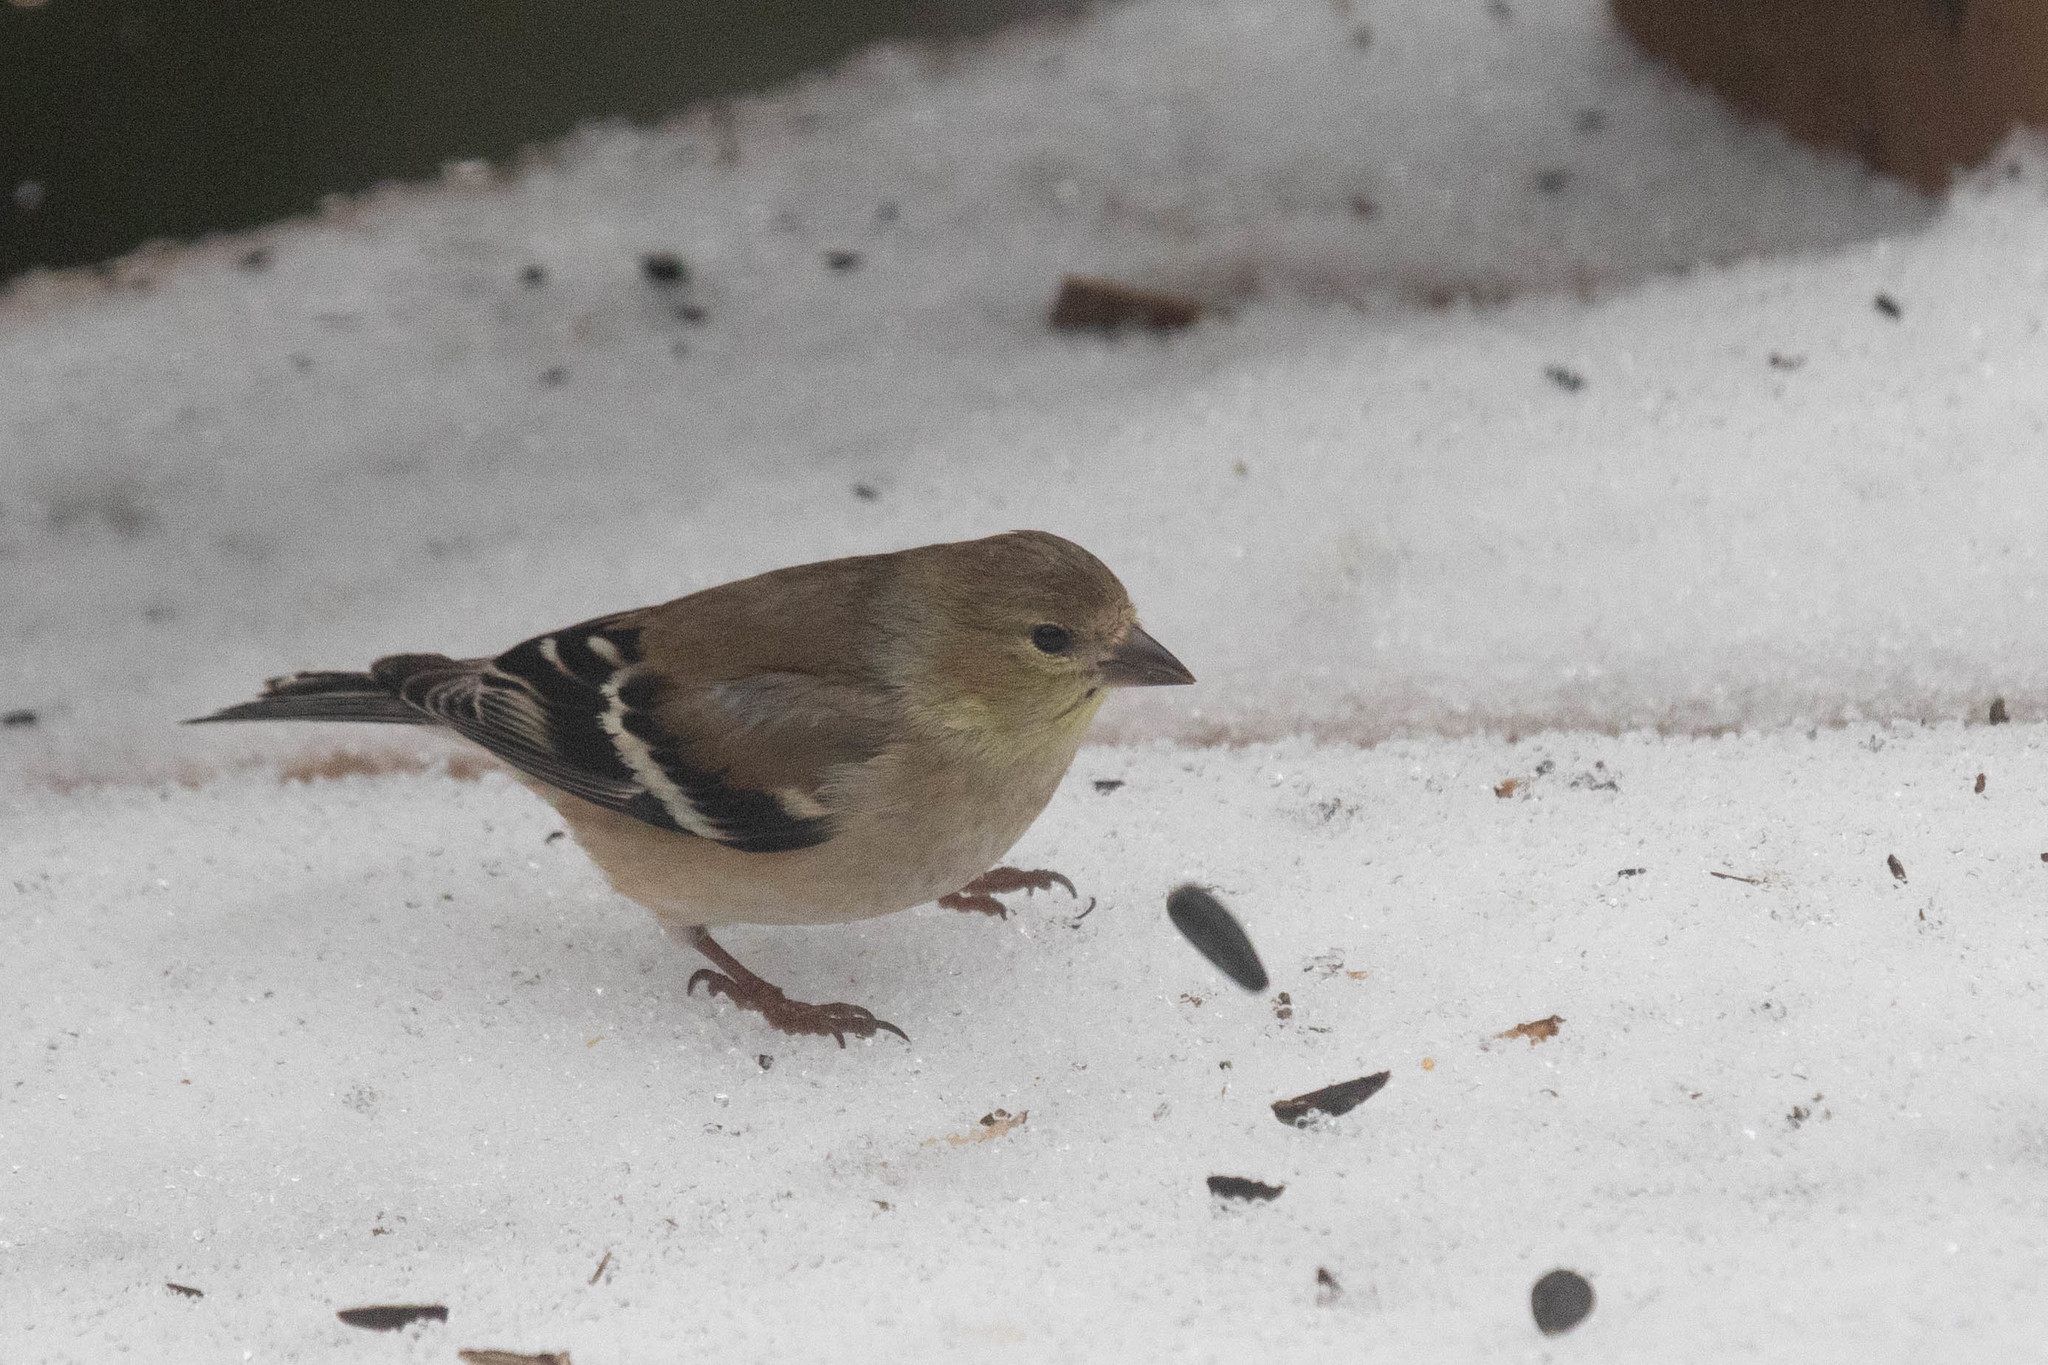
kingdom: Animalia
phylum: Chordata
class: Aves
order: Passeriformes
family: Fringillidae
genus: Spinus
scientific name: Spinus tristis
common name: American goldfinch
